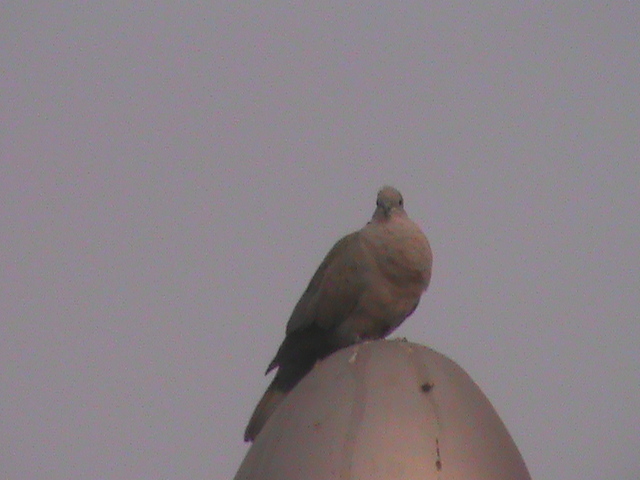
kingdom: Animalia
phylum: Chordata
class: Aves
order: Columbiformes
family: Columbidae
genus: Streptopelia
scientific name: Streptopelia decaocto
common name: Eurasian collared dove
